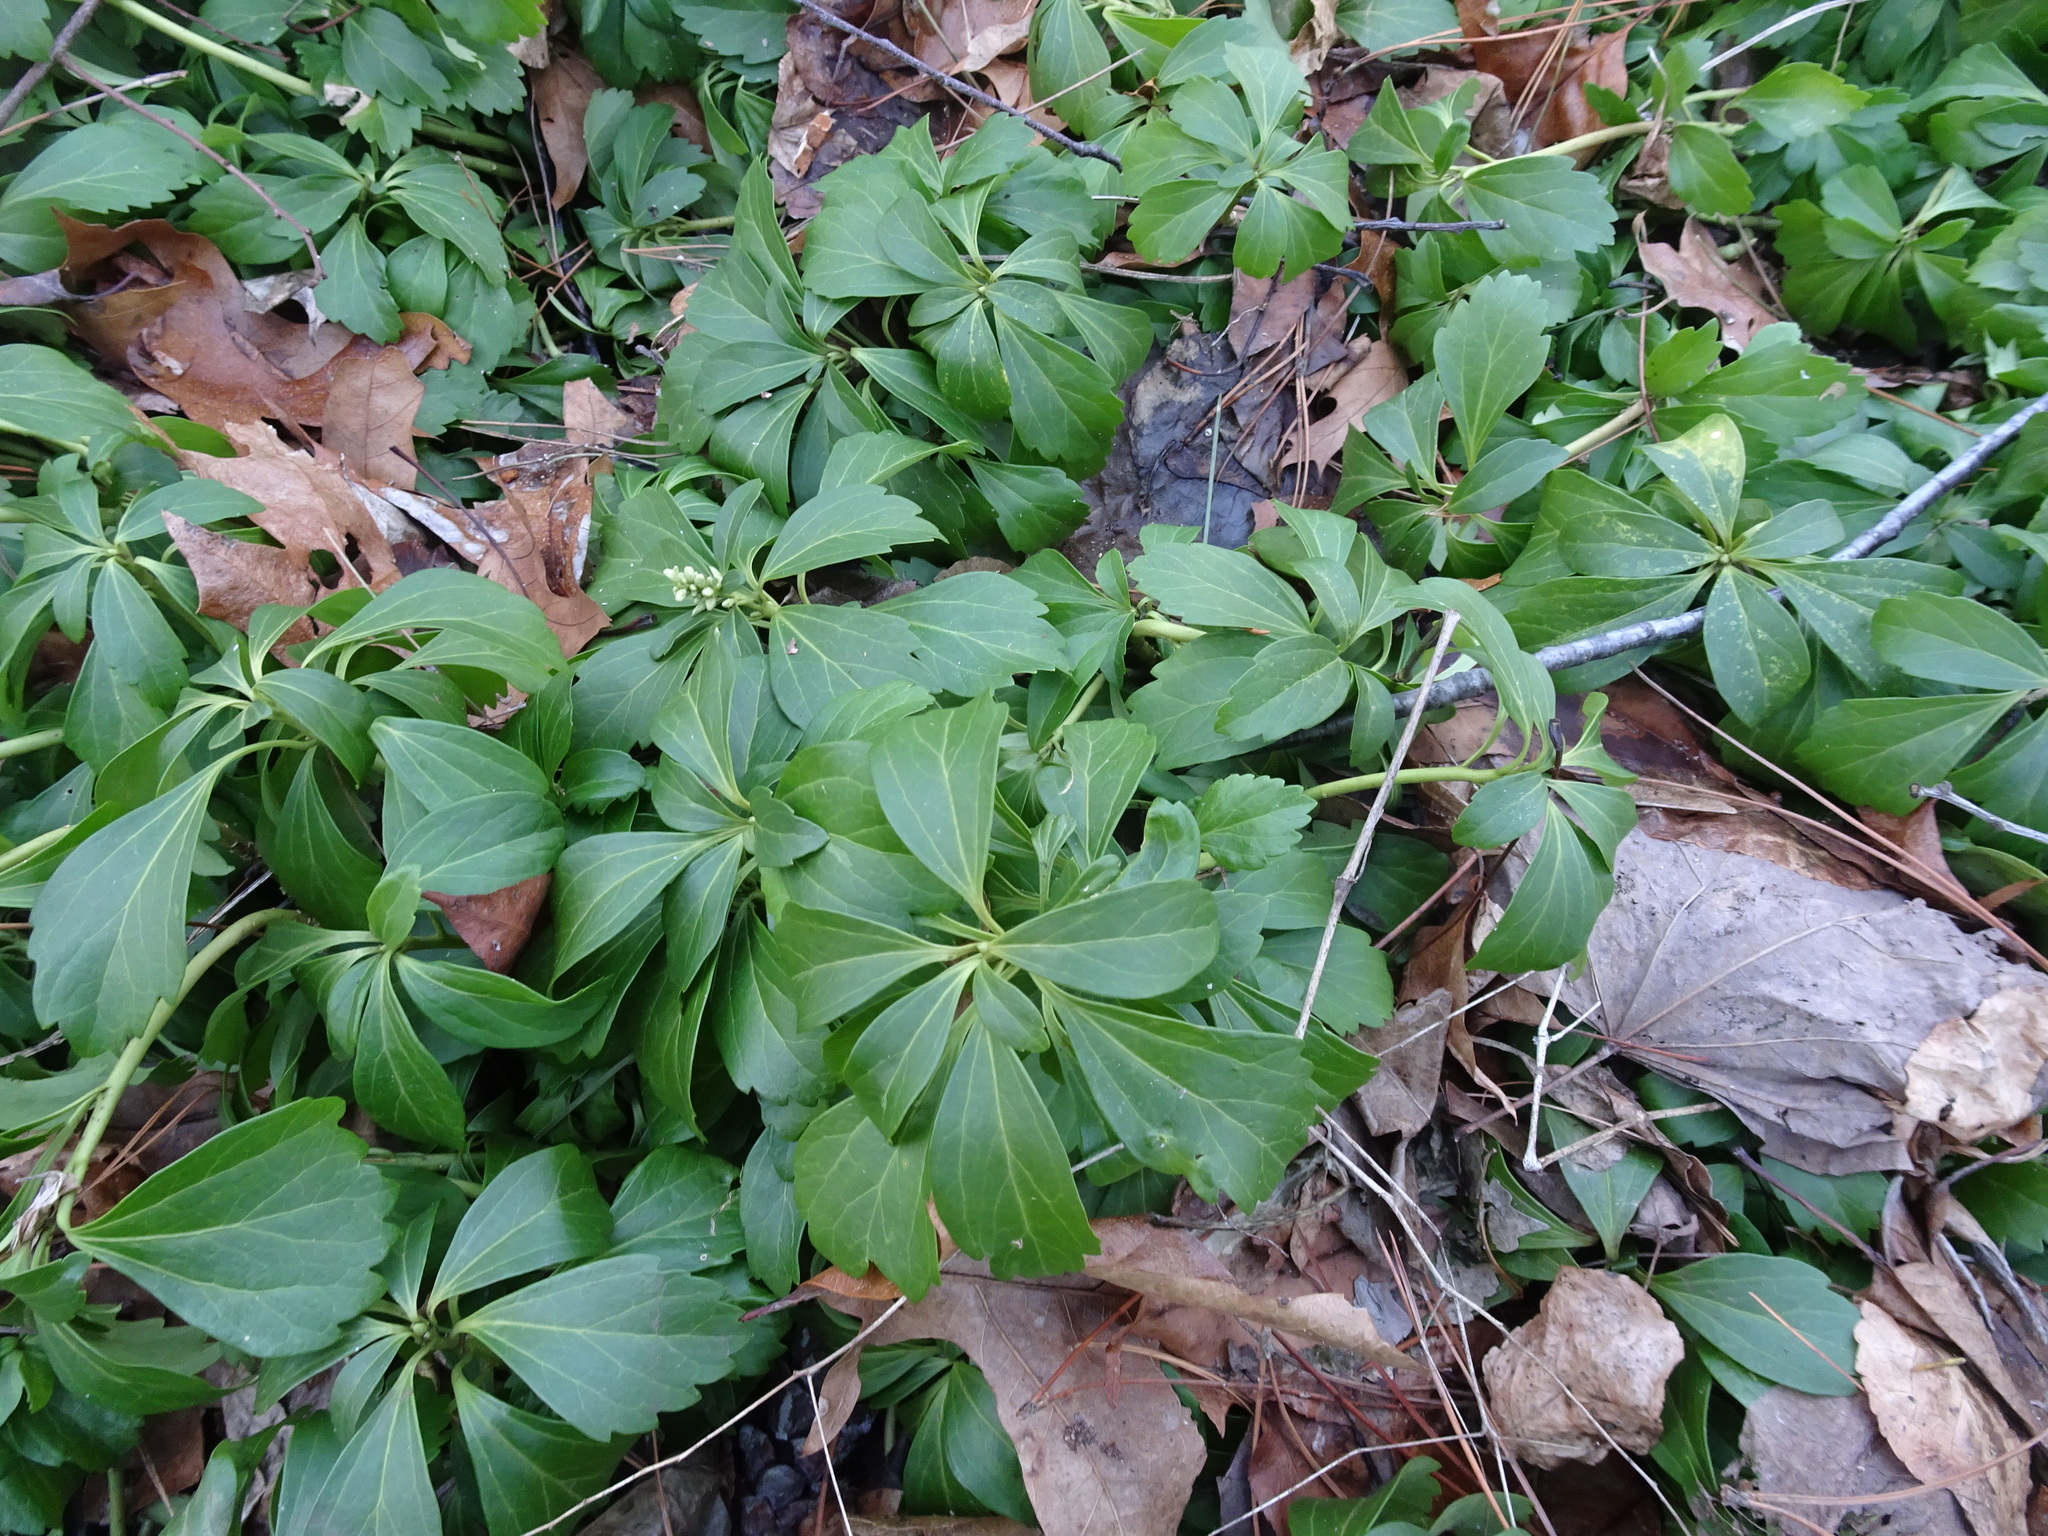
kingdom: Plantae
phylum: Tracheophyta
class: Magnoliopsida
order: Buxales
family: Buxaceae
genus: Pachysandra
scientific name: Pachysandra terminalis
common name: Japanese pachysandra
